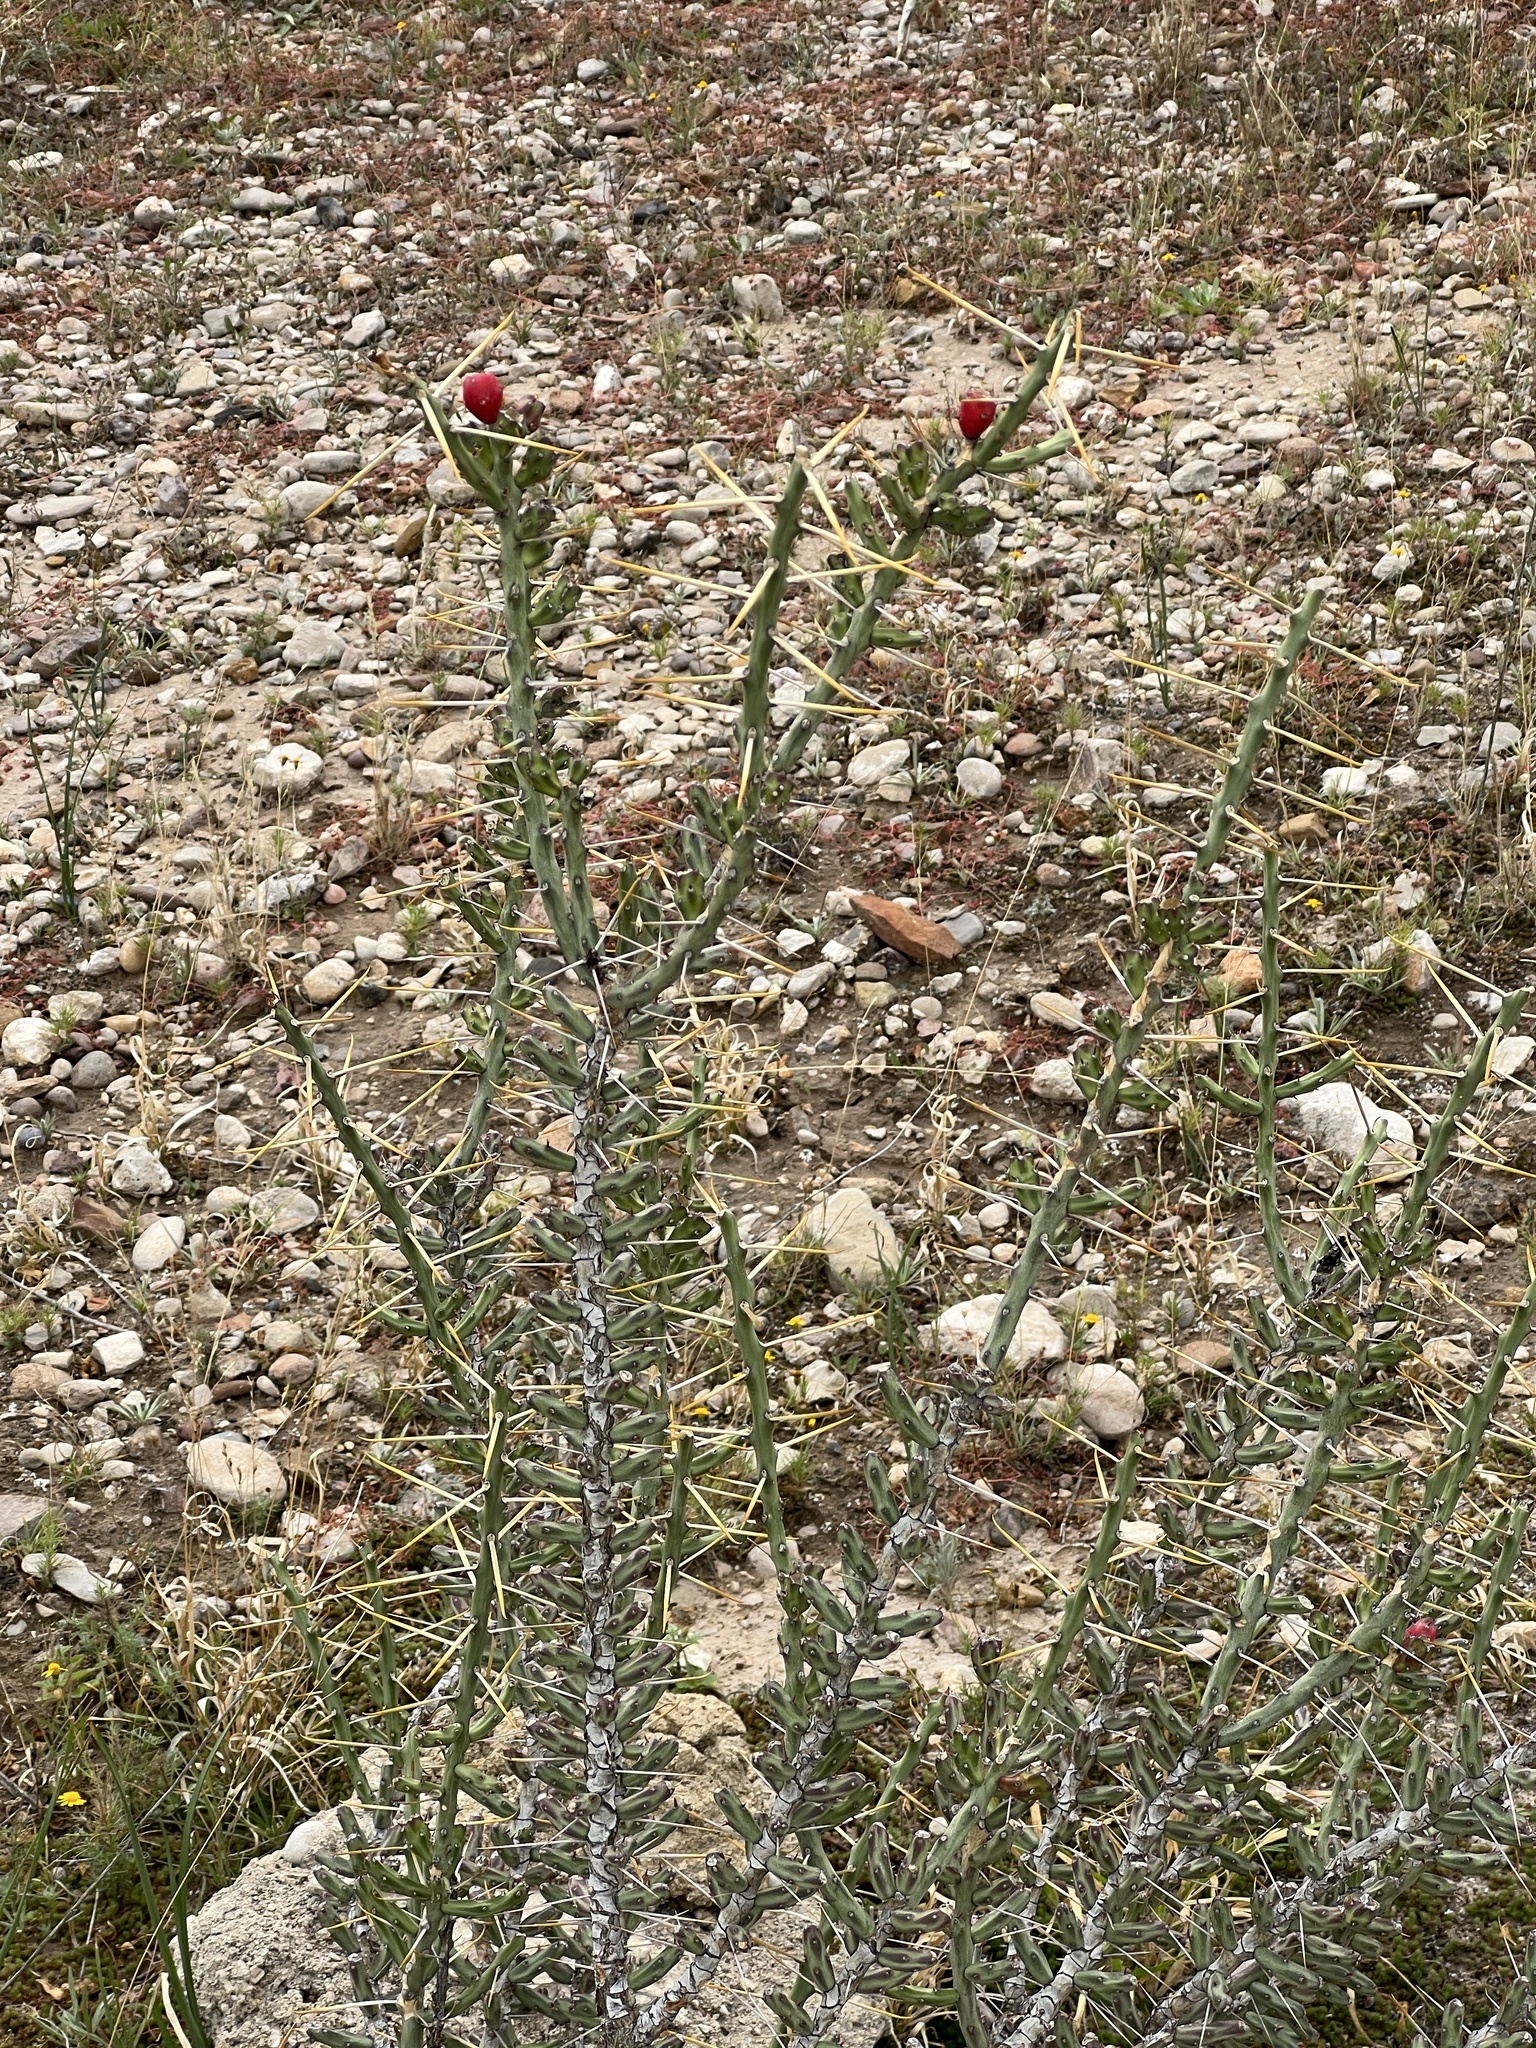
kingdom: Plantae
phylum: Tracheophyta
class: Magnoliopsida
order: Caryophyllales
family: Cactaceae
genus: Cylindropuntia
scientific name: Cylindropuntia leptocaulis
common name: Christmas cactus
